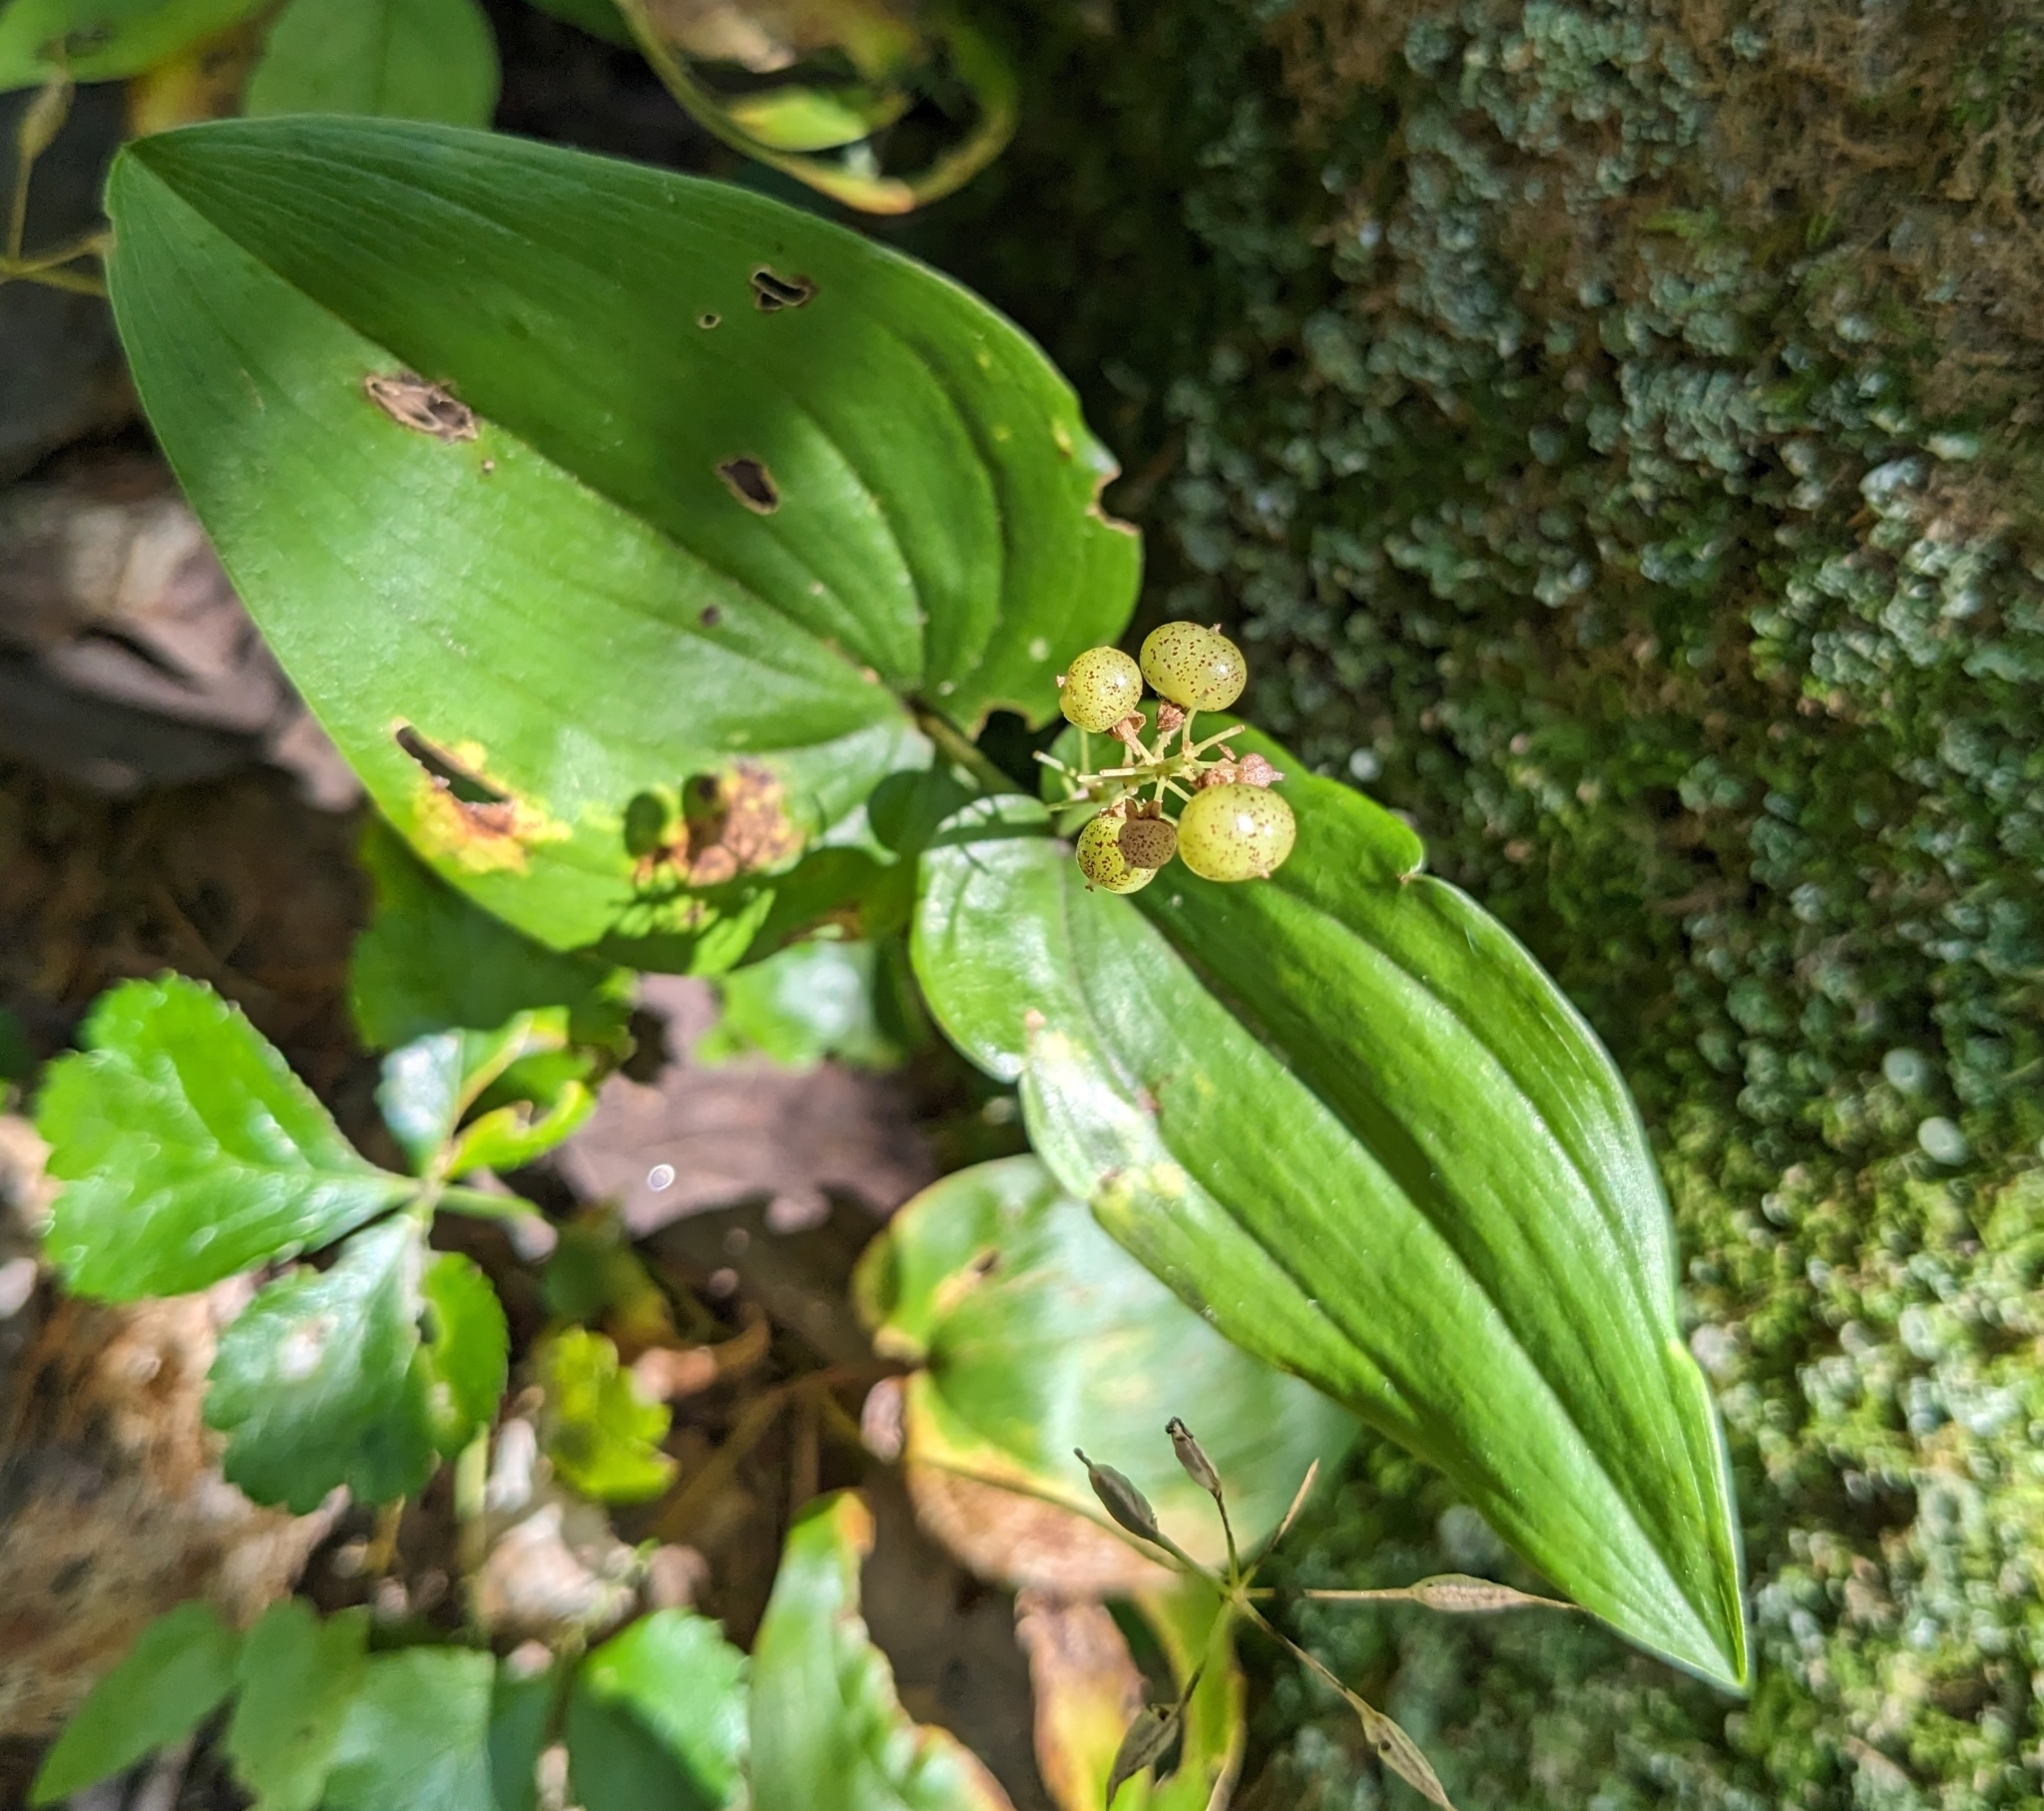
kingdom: Plantae
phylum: Tracheophyta
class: Liliopsida
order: Asparagales
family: Asparagaceae
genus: Maianthemum
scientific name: Maianthemum canadense
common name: False lily-of-the-valley
